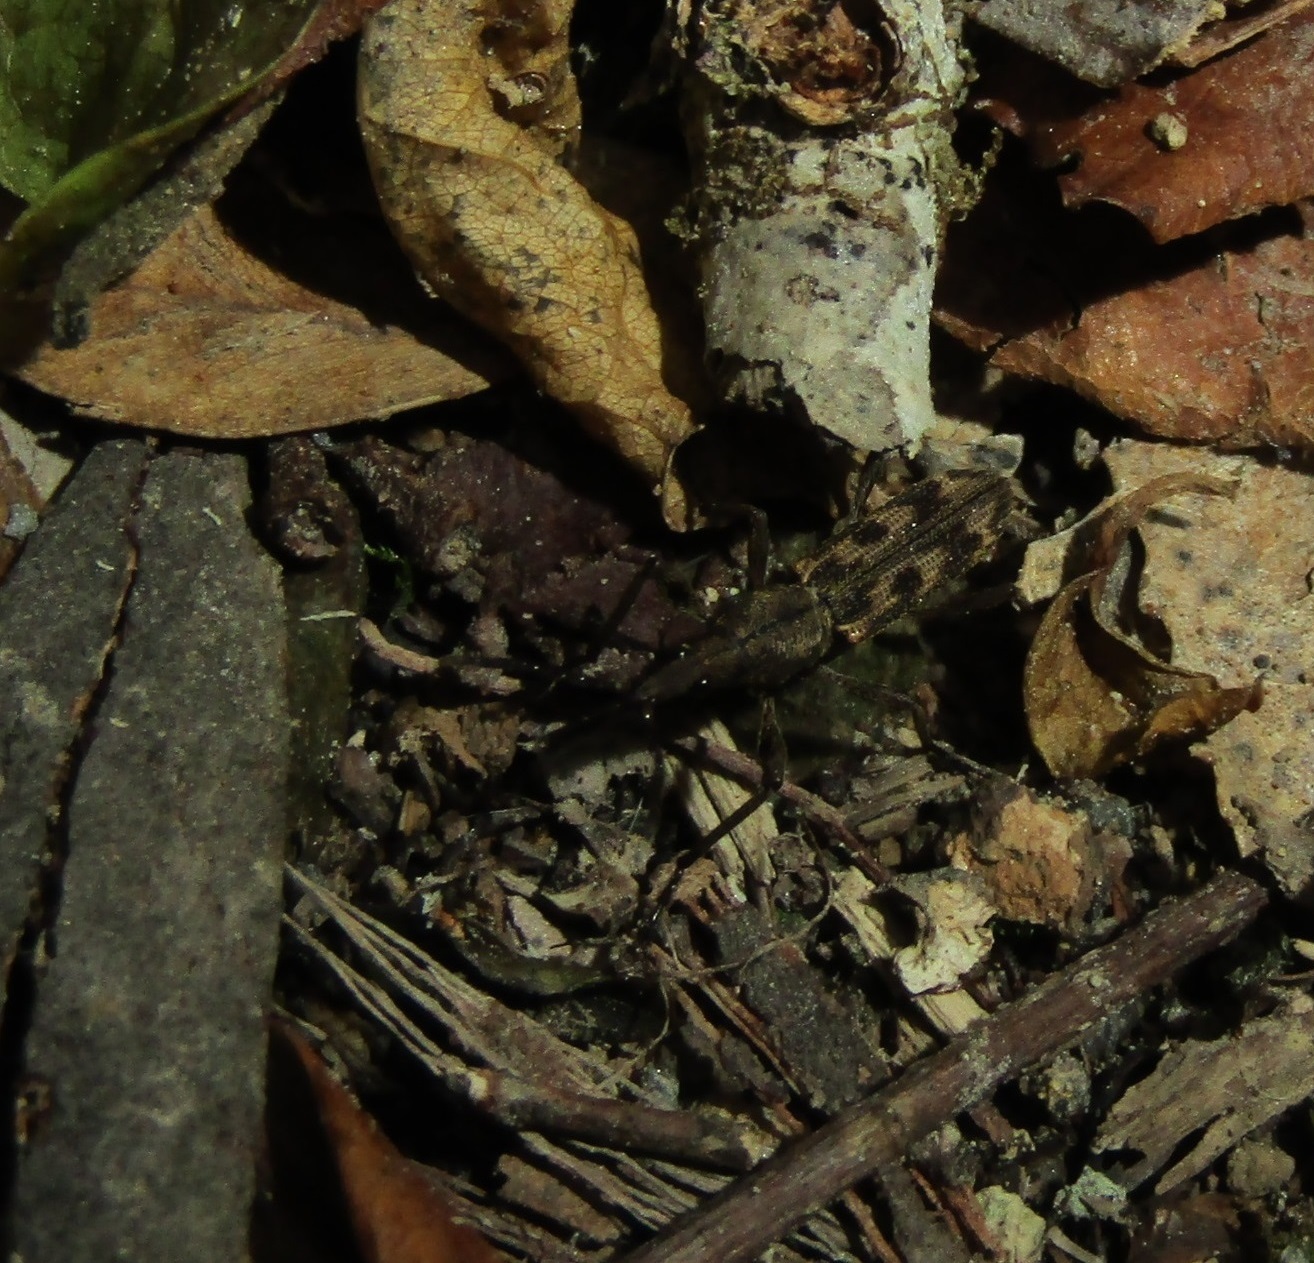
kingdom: Animalia
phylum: Arthropoda
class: Insecta
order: Coleoptera
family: Brentidae
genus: Lasiorhynchus
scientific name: Lasiorhynchus barbicornis
